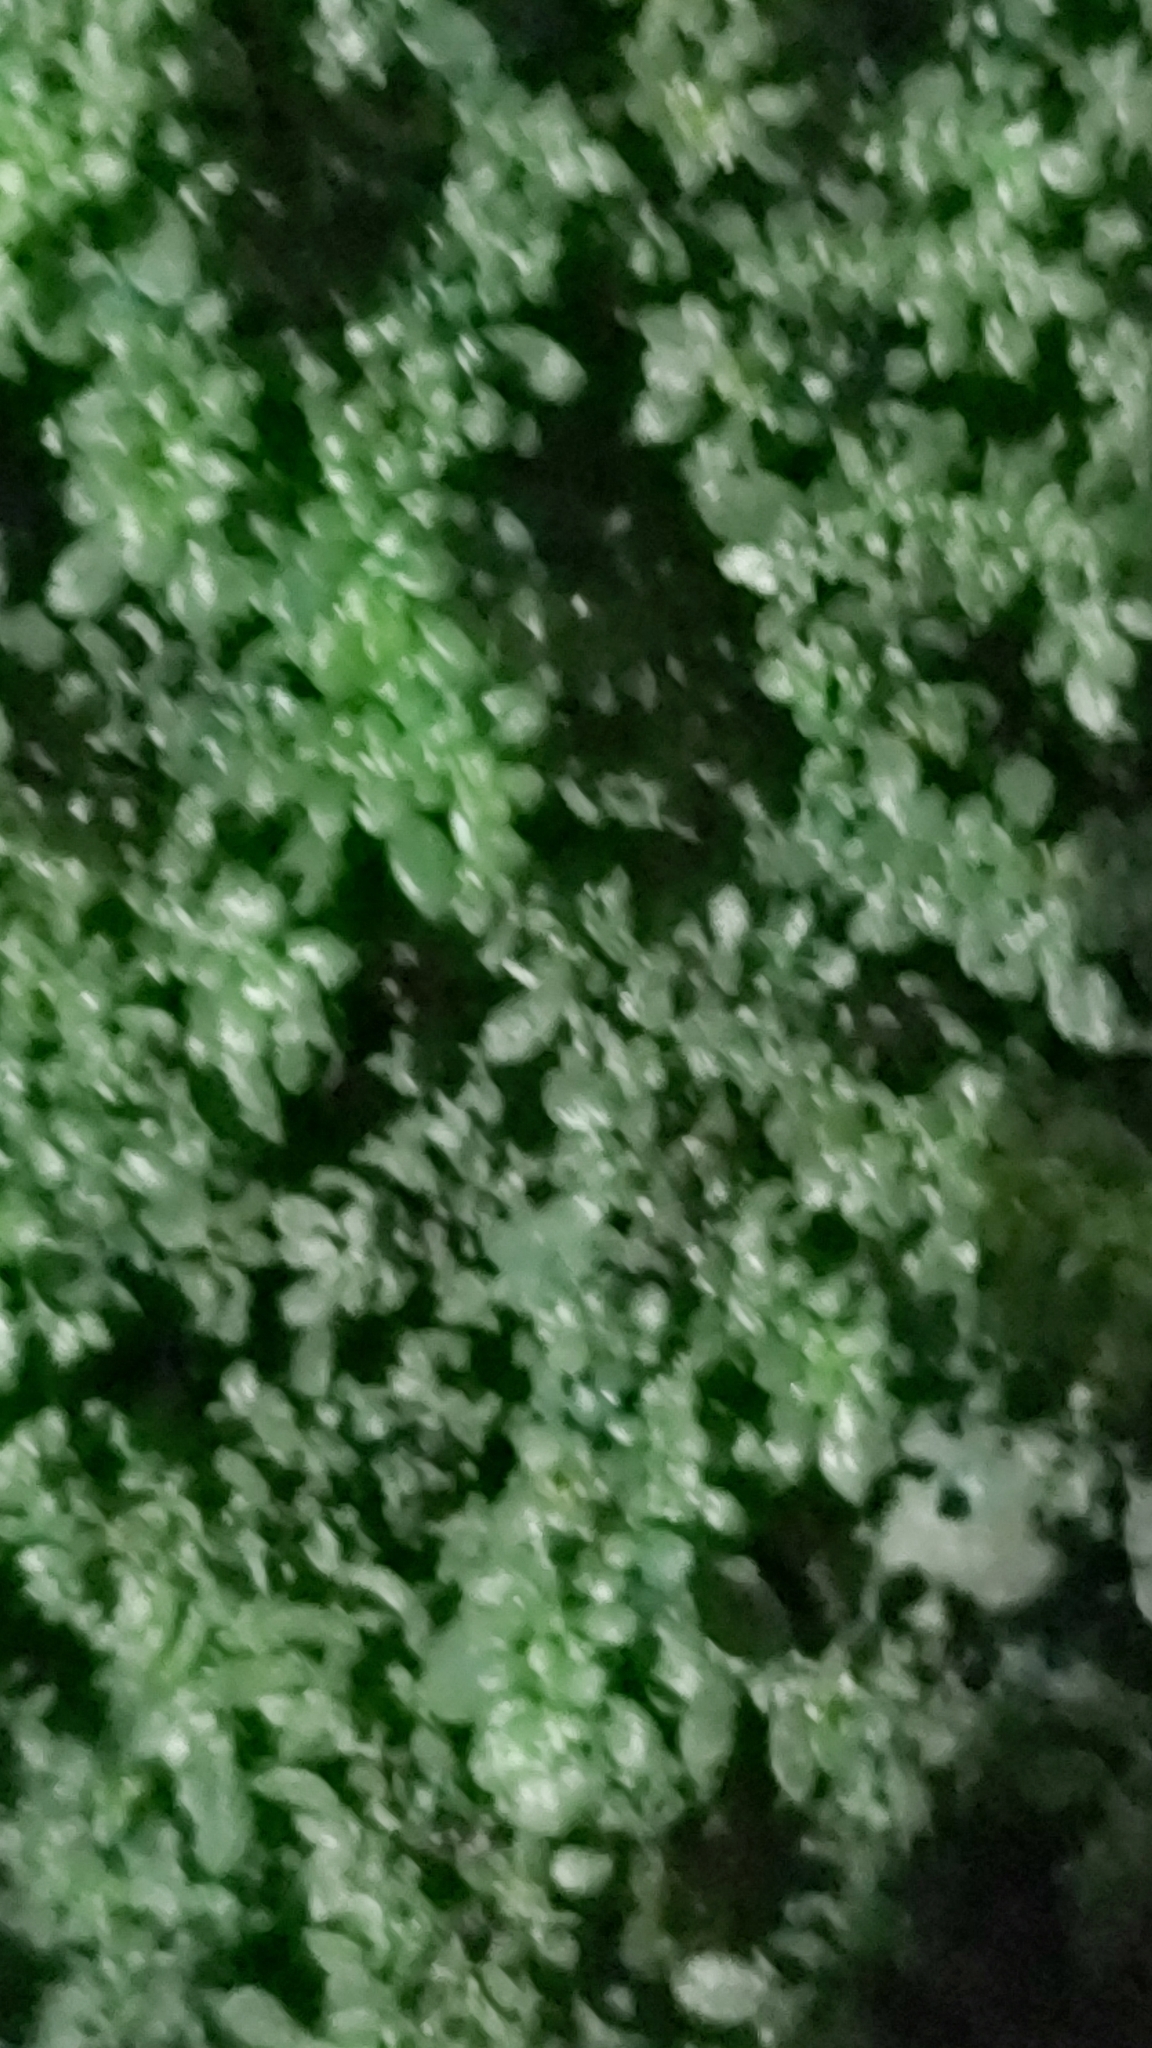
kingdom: Plantae
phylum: Tracheophyta
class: Magnoliopsida
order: Rosales
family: Urticaceae
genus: Pilea
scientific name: Pilea microphylla
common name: Artillery-plant
